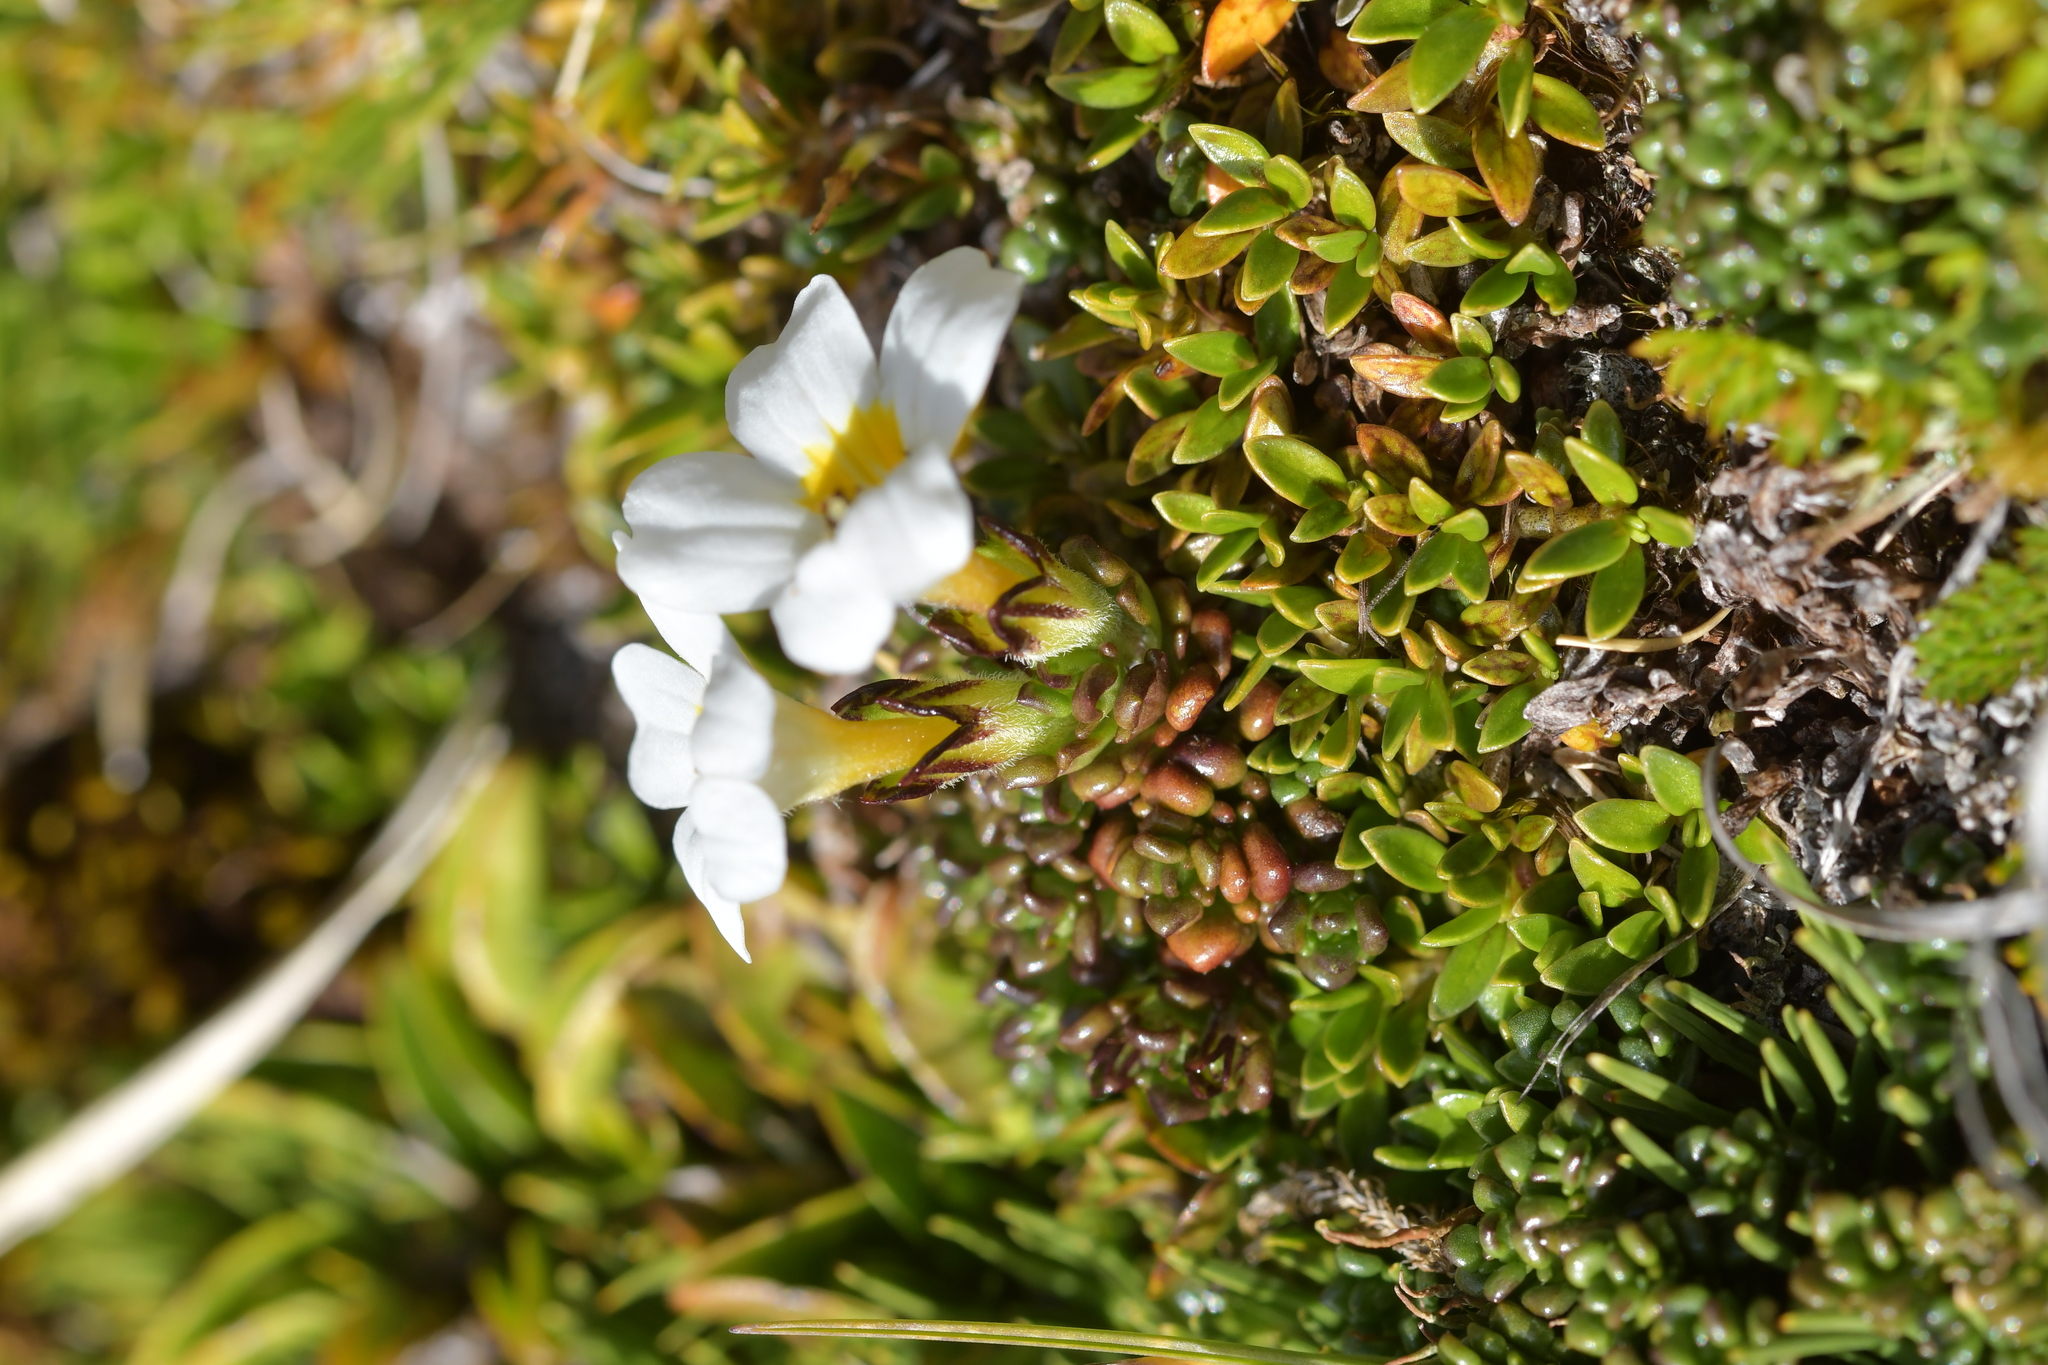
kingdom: Plantae
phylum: Tracheophyta
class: Magnoliopsida
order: Lamiales
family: Orobanchaceae
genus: Euphrasia
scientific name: Euphrasia revoluta
